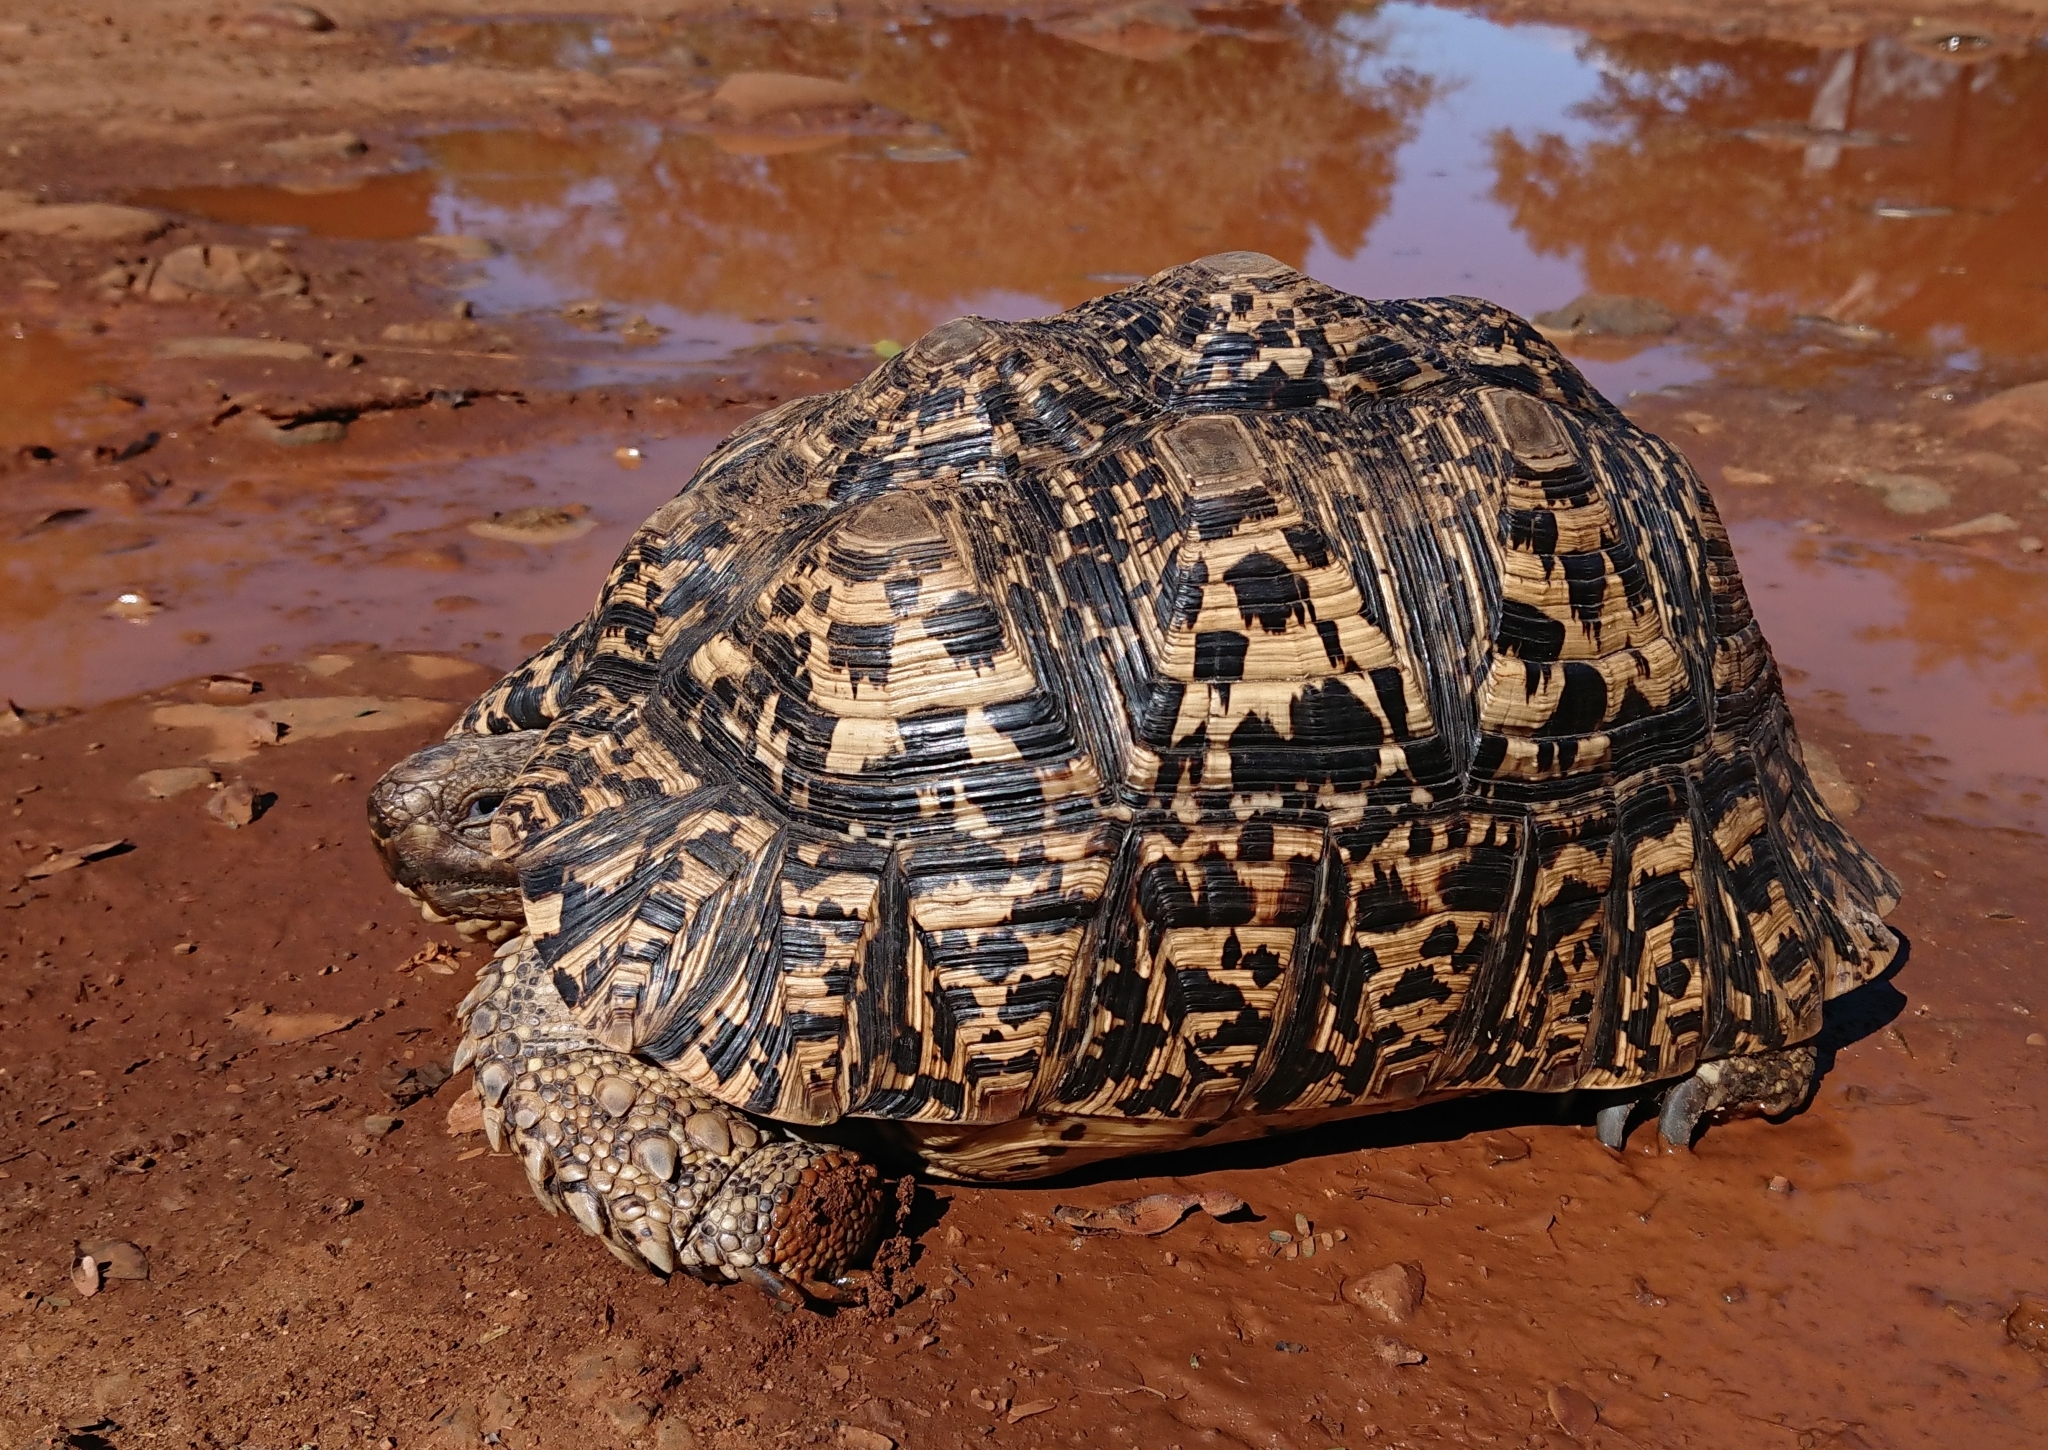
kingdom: Animalia
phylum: Chordata
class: Testudines
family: Testudinidae
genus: Stigmochelys
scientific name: Stigmochelys pardalis
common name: Leopard tortoise
